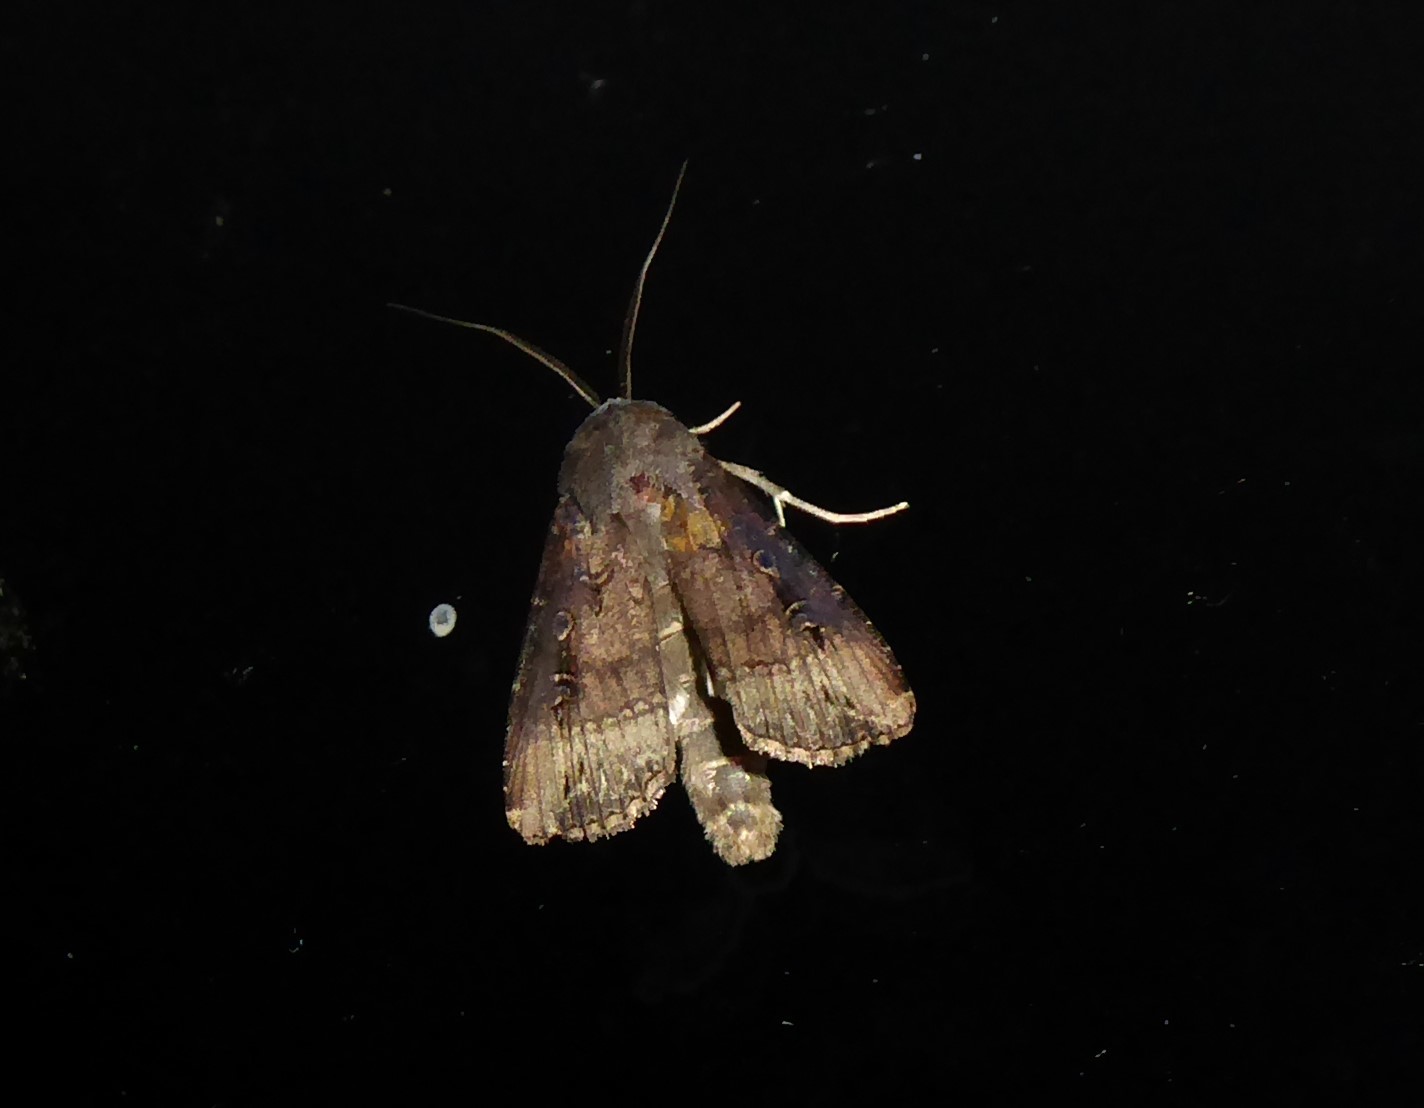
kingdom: Animalia
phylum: Arthropoda
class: Insecta
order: Lepidoptera
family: Noctuidae
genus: Agrotis
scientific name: Agrotis ipsilon
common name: Dark sword-grass
